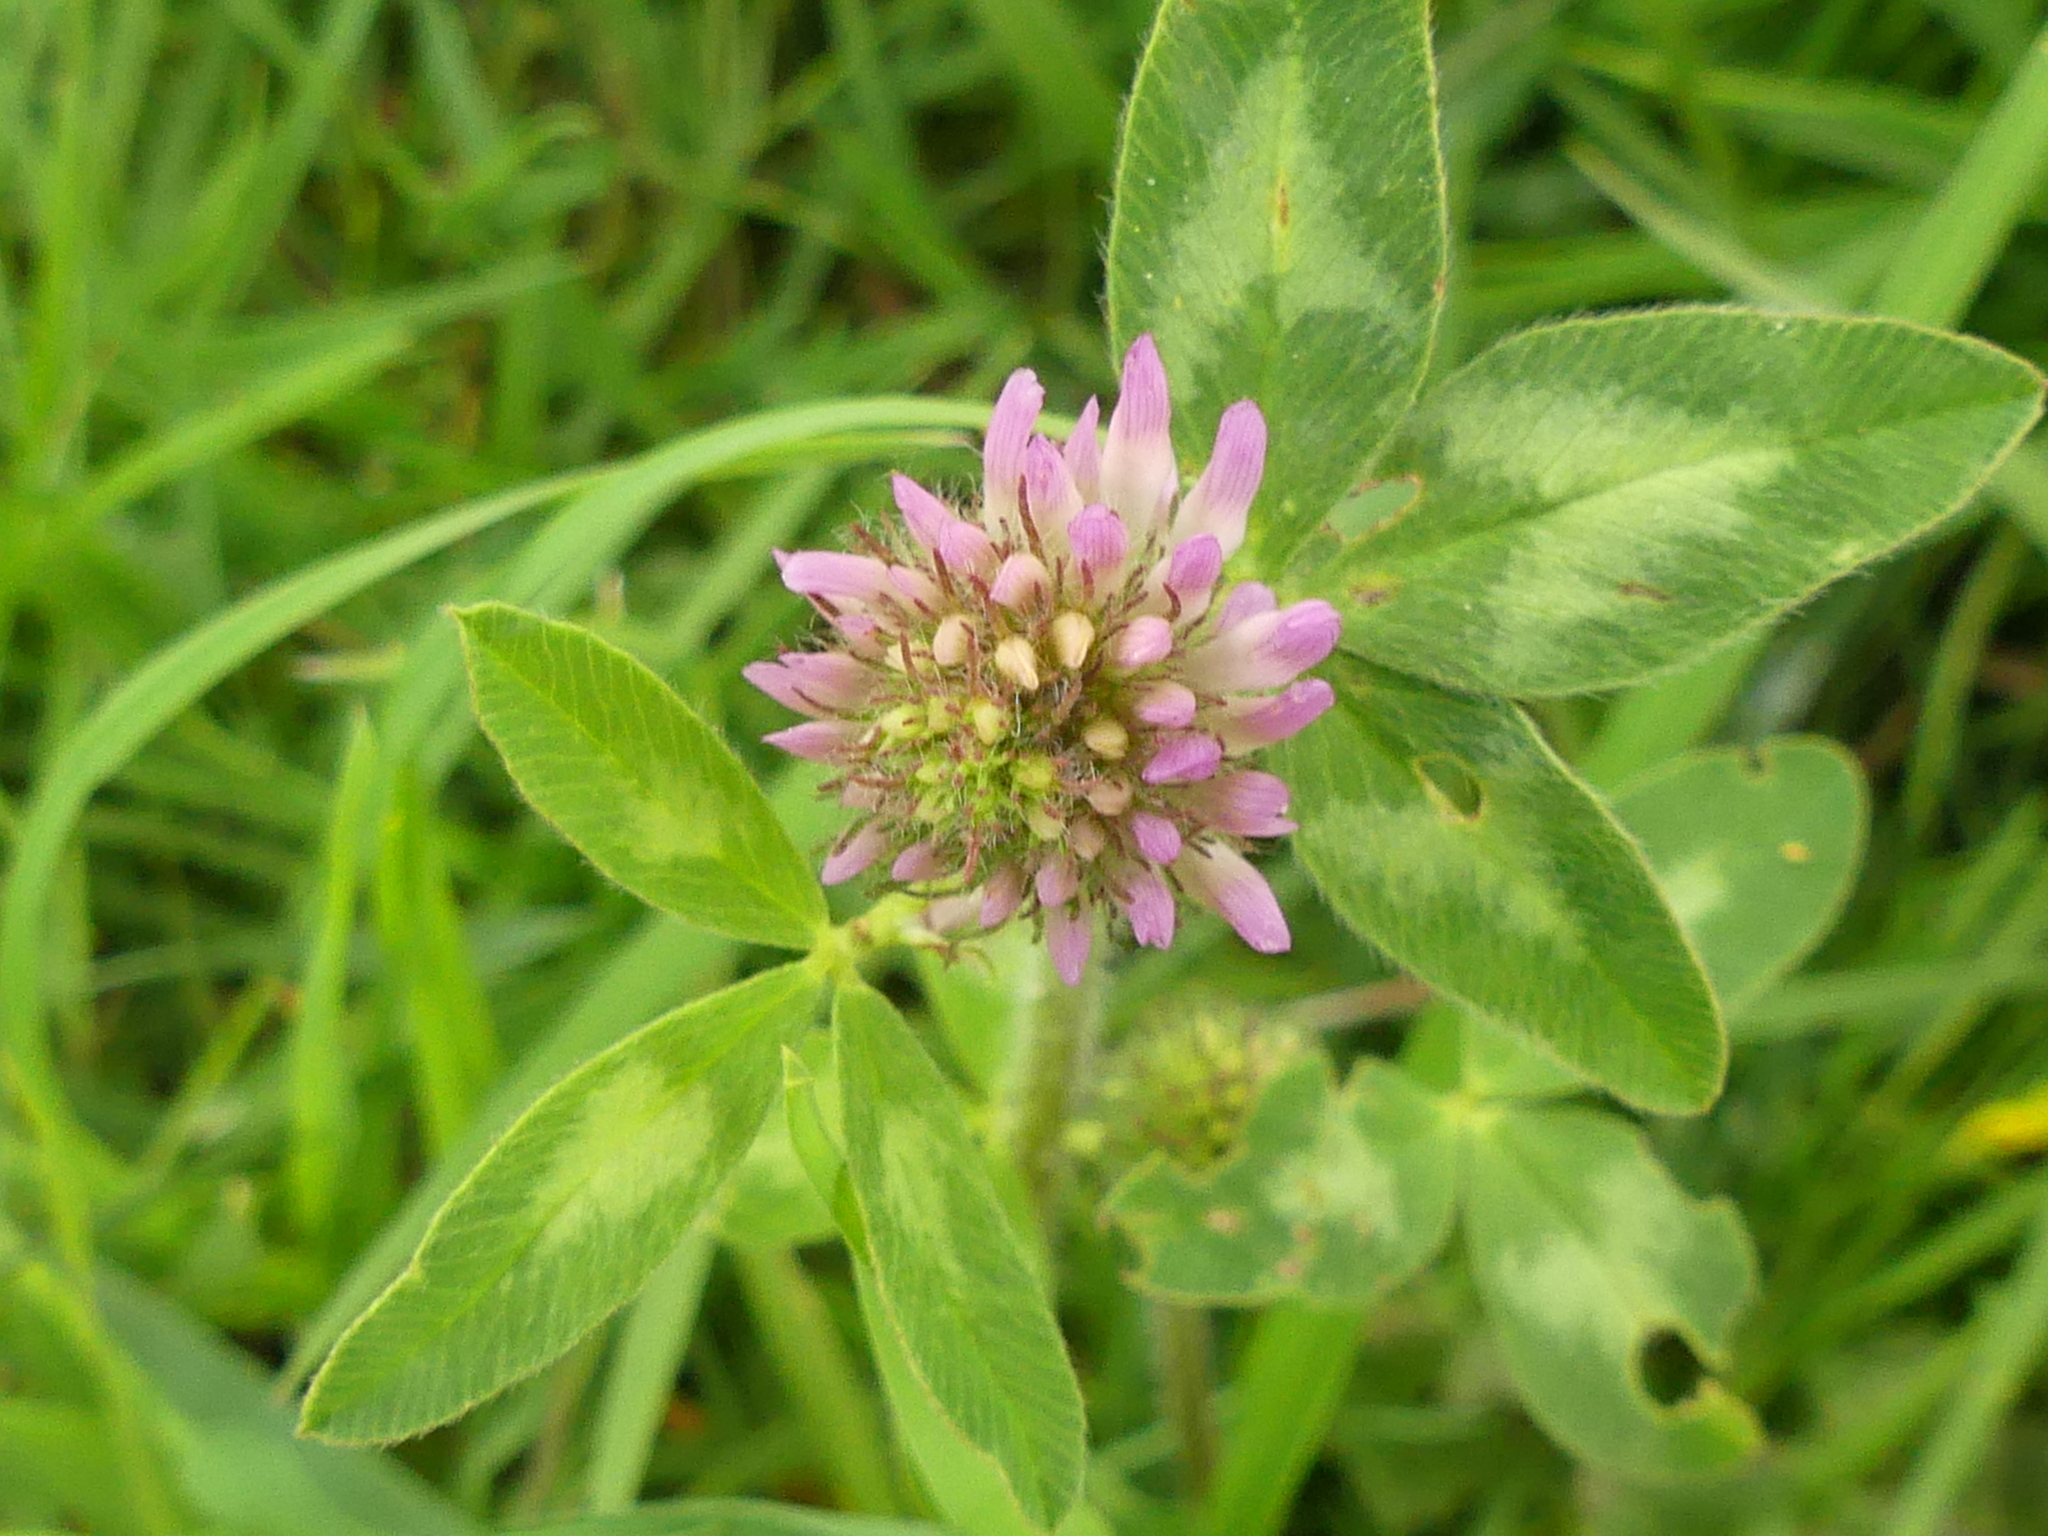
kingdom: Plantae
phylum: Tracheophyta
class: Magnoliopsida
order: Fabales
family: Fabaceae
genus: Trifolium
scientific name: Trifolium pratense
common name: Red clover
